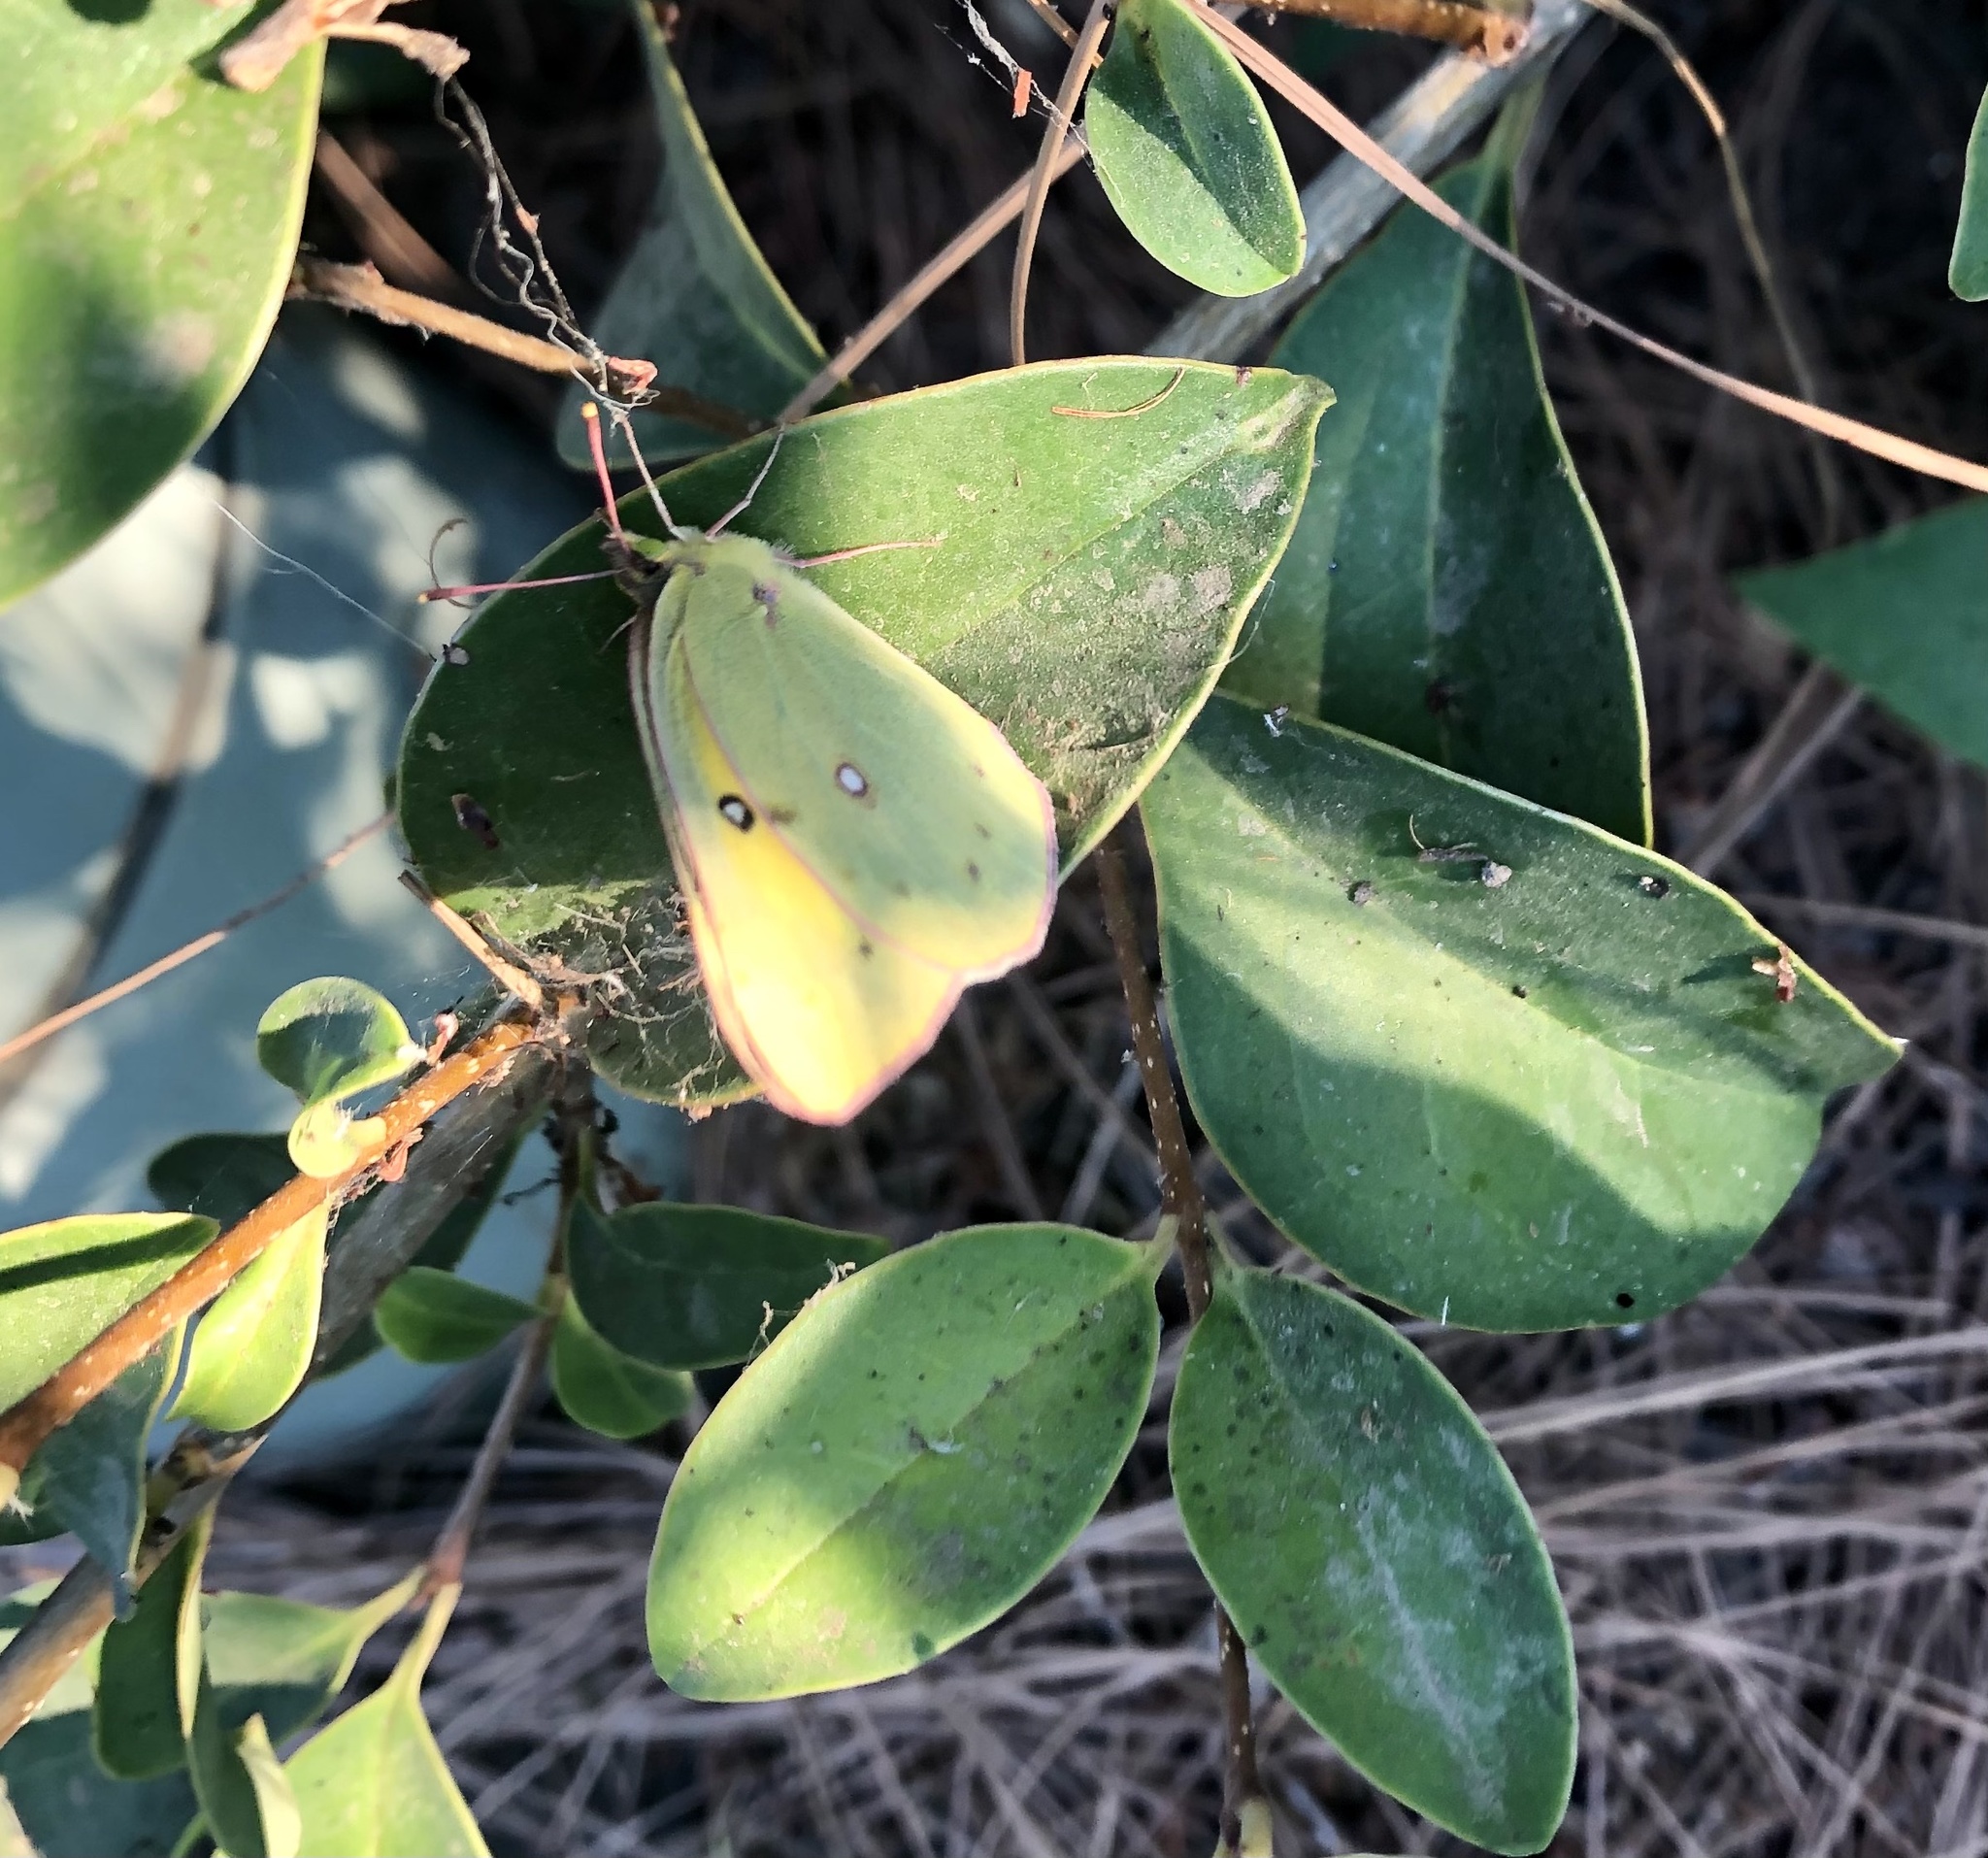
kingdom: Animalia
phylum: Arthropoda
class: Insecta
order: Lepidoptera
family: Pieridae
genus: Colias
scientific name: Colias eurytheme
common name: Alfalfa butterfly
